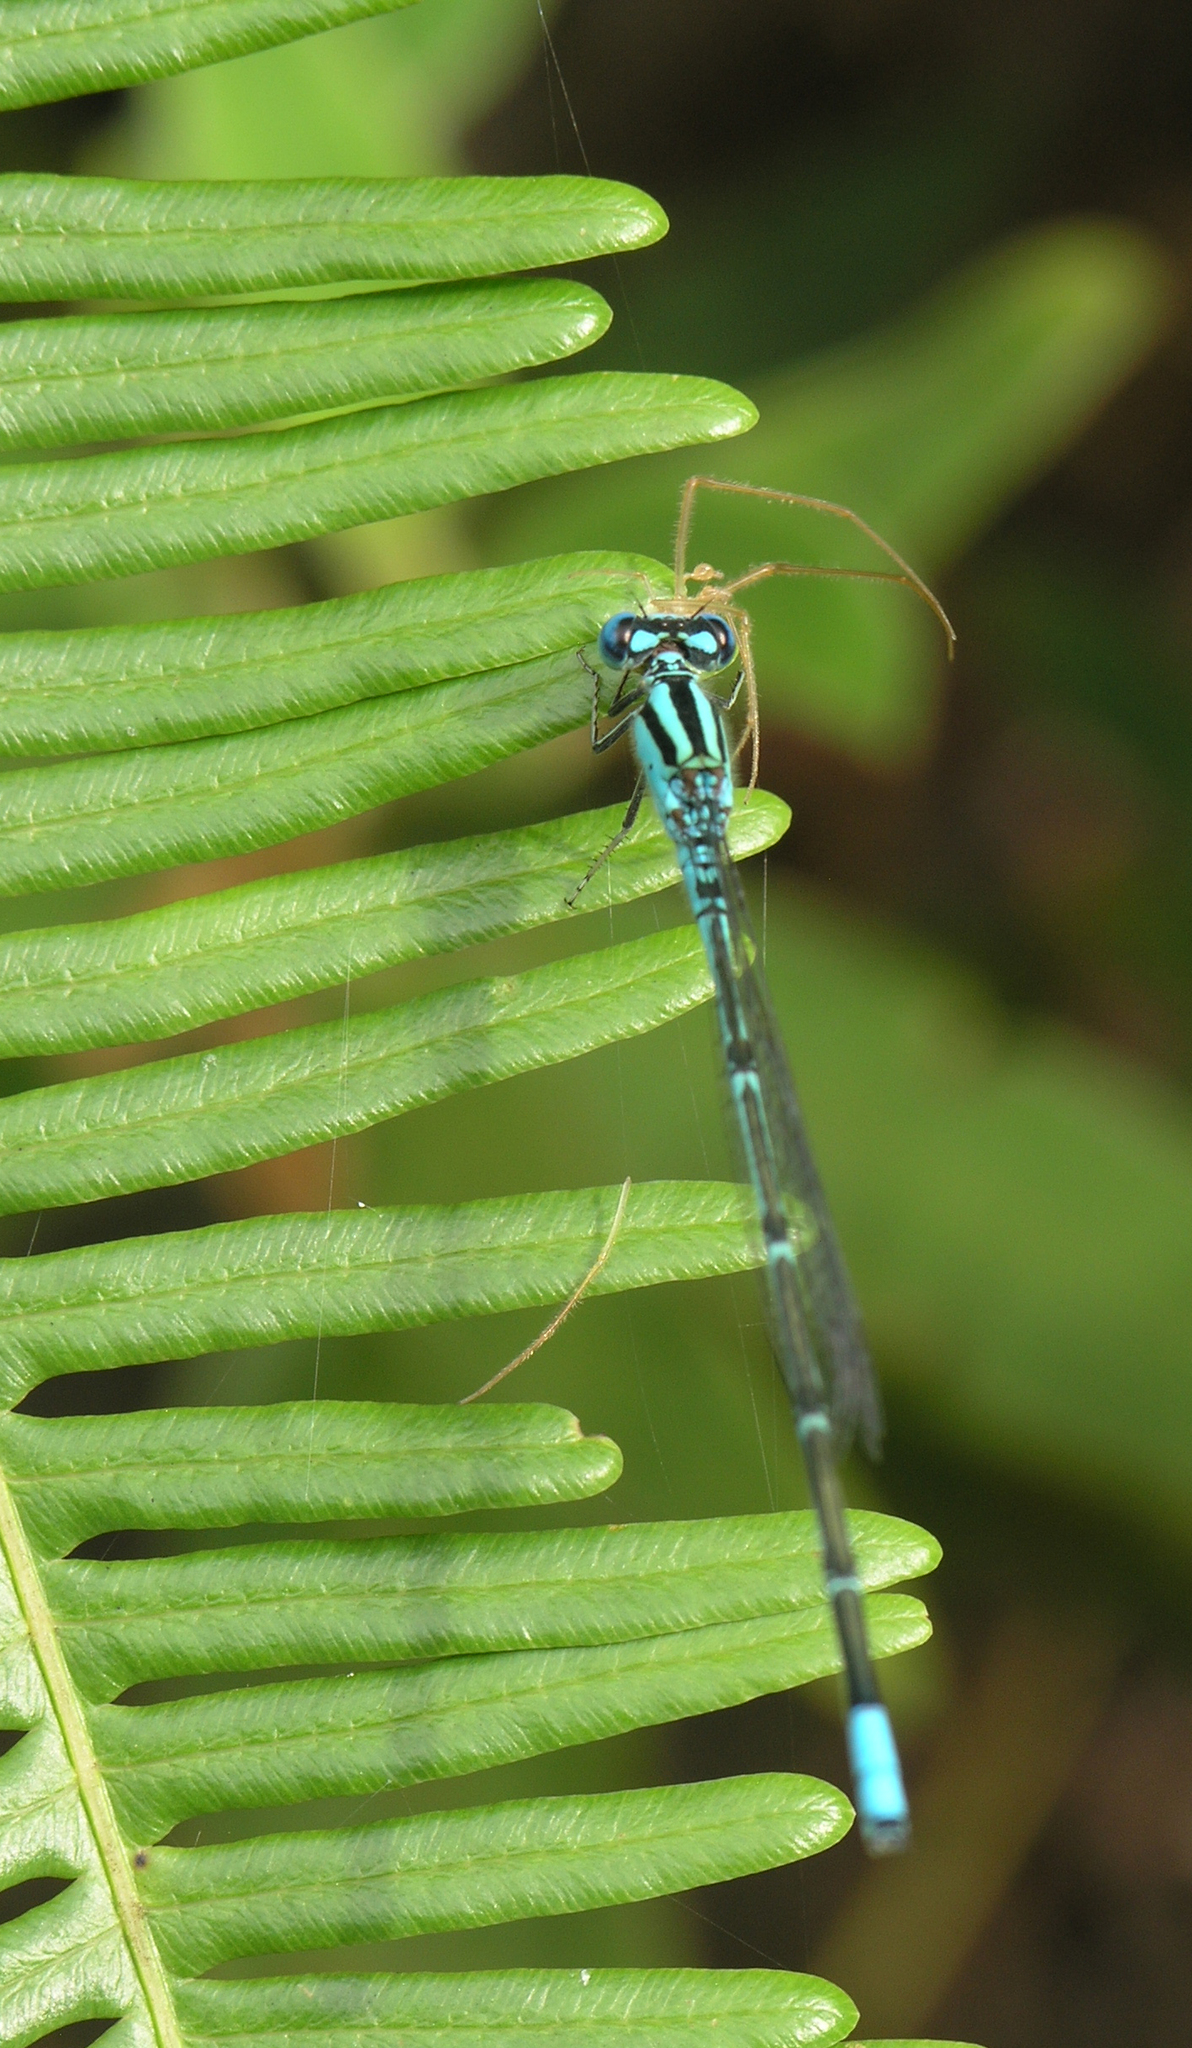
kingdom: Animalia
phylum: Arthropoda
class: Insecta
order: Odonata
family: Coenagrionidae
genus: Pseudagrion
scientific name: Pseudagrion australasiae
